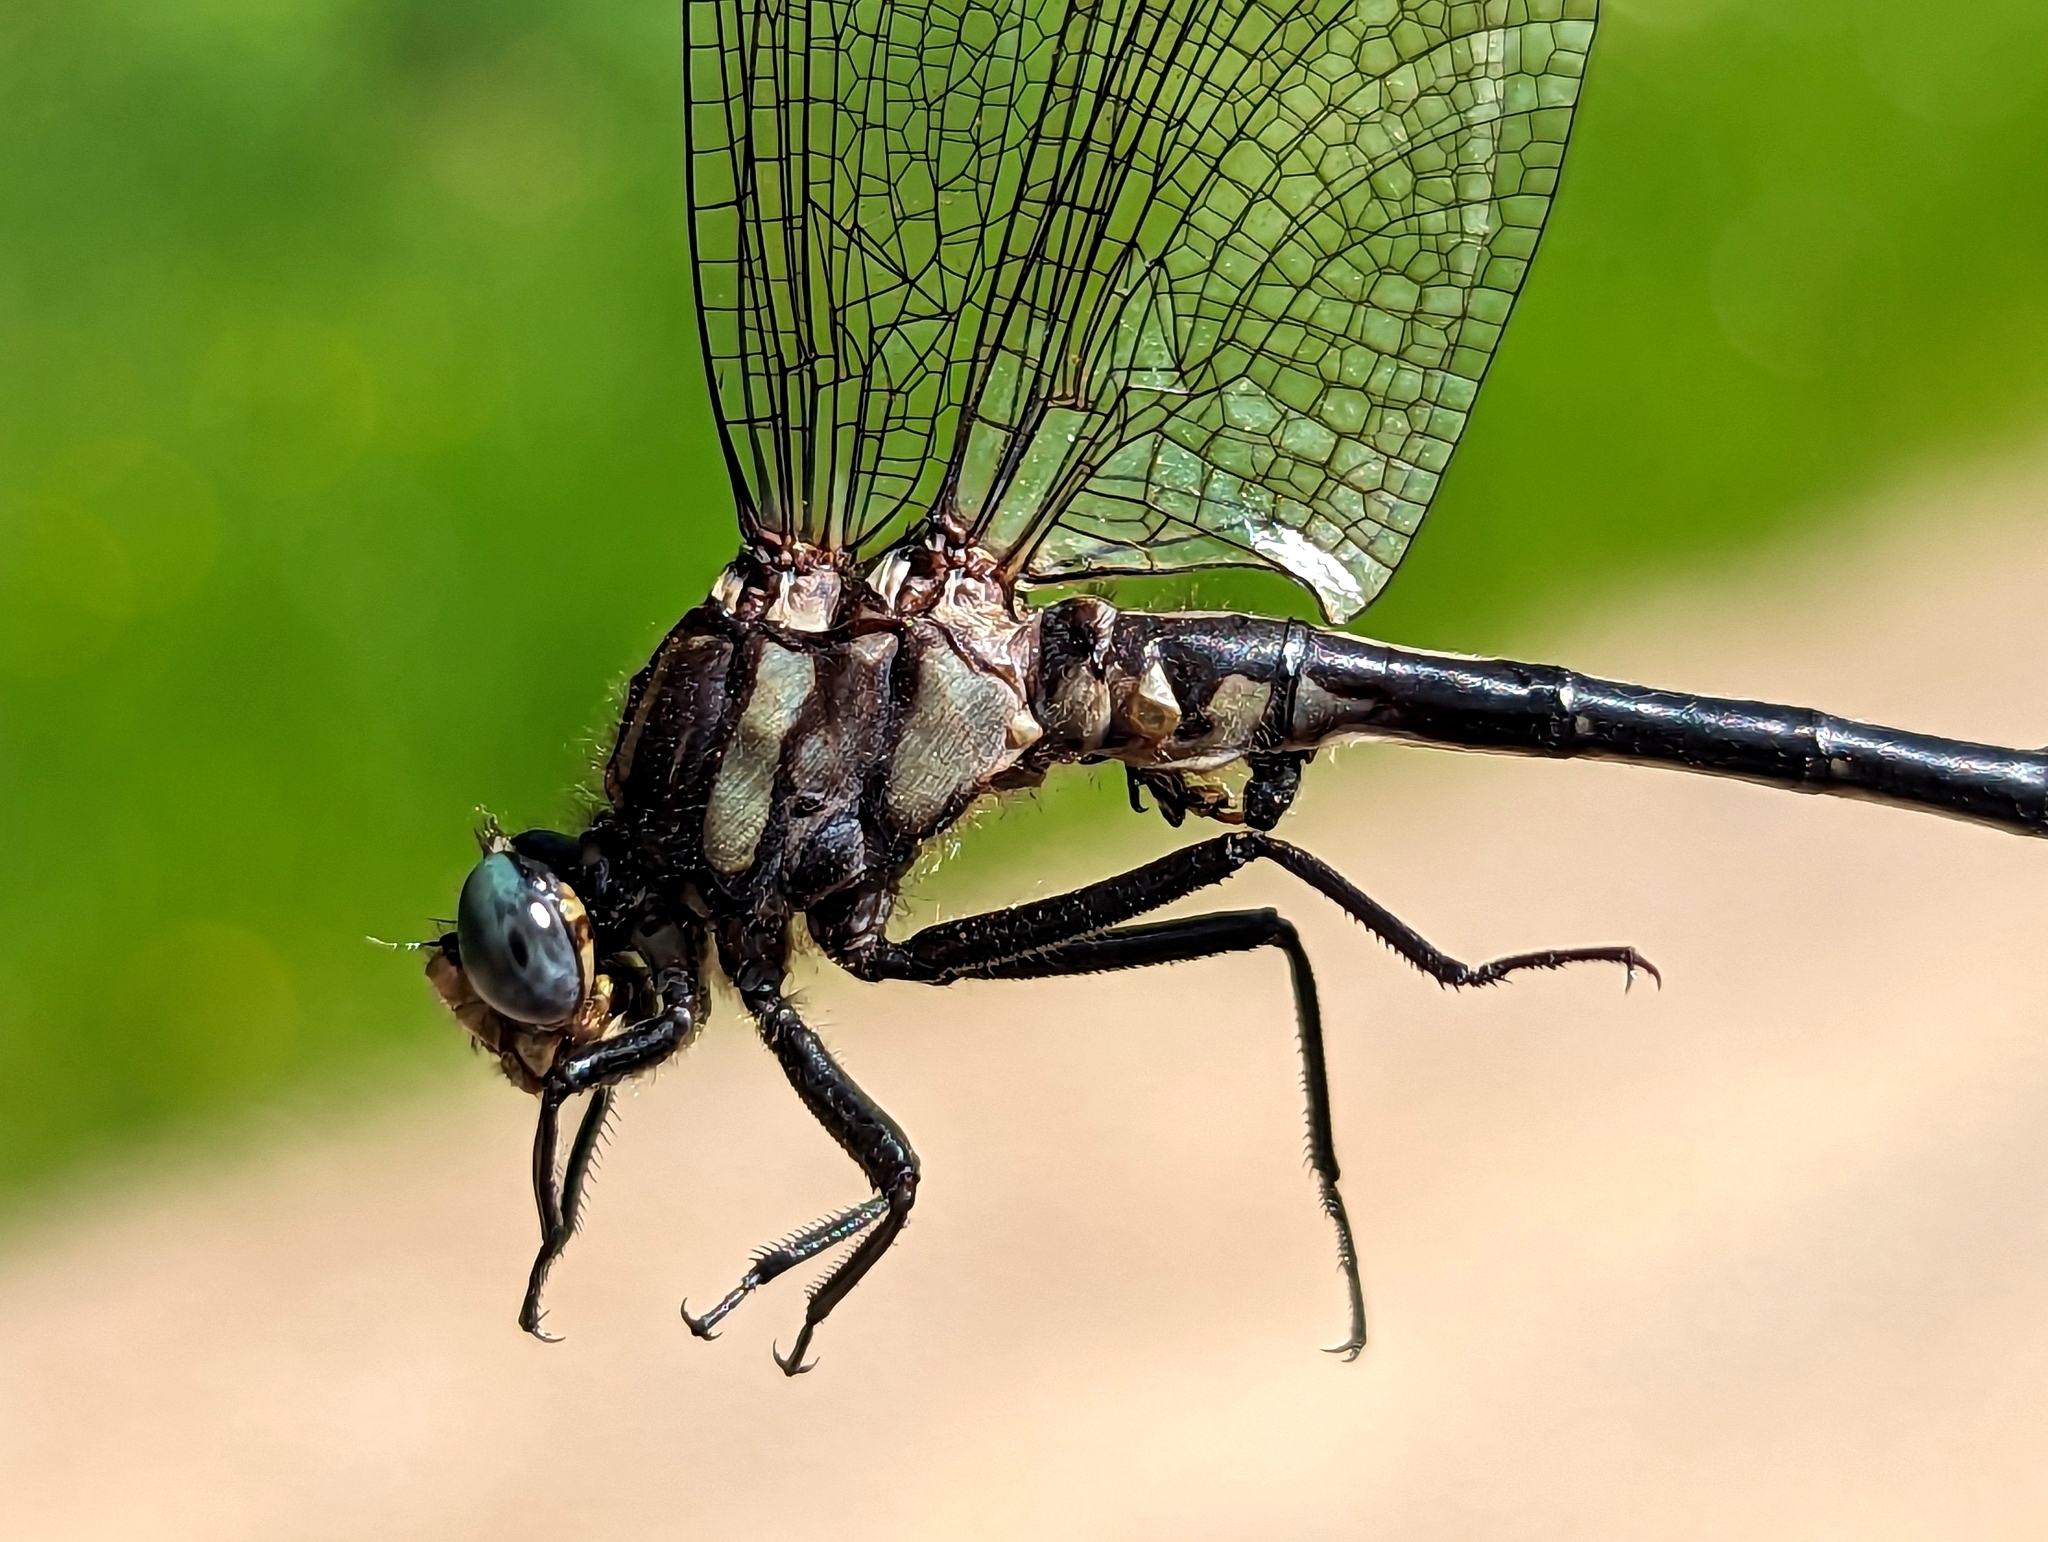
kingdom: Animalia
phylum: Arthropoda
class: Insecta
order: Odonata
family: Gomphidae
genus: Phanogomphus
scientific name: Phanogomphus descriptus
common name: Harpoon clubtail
